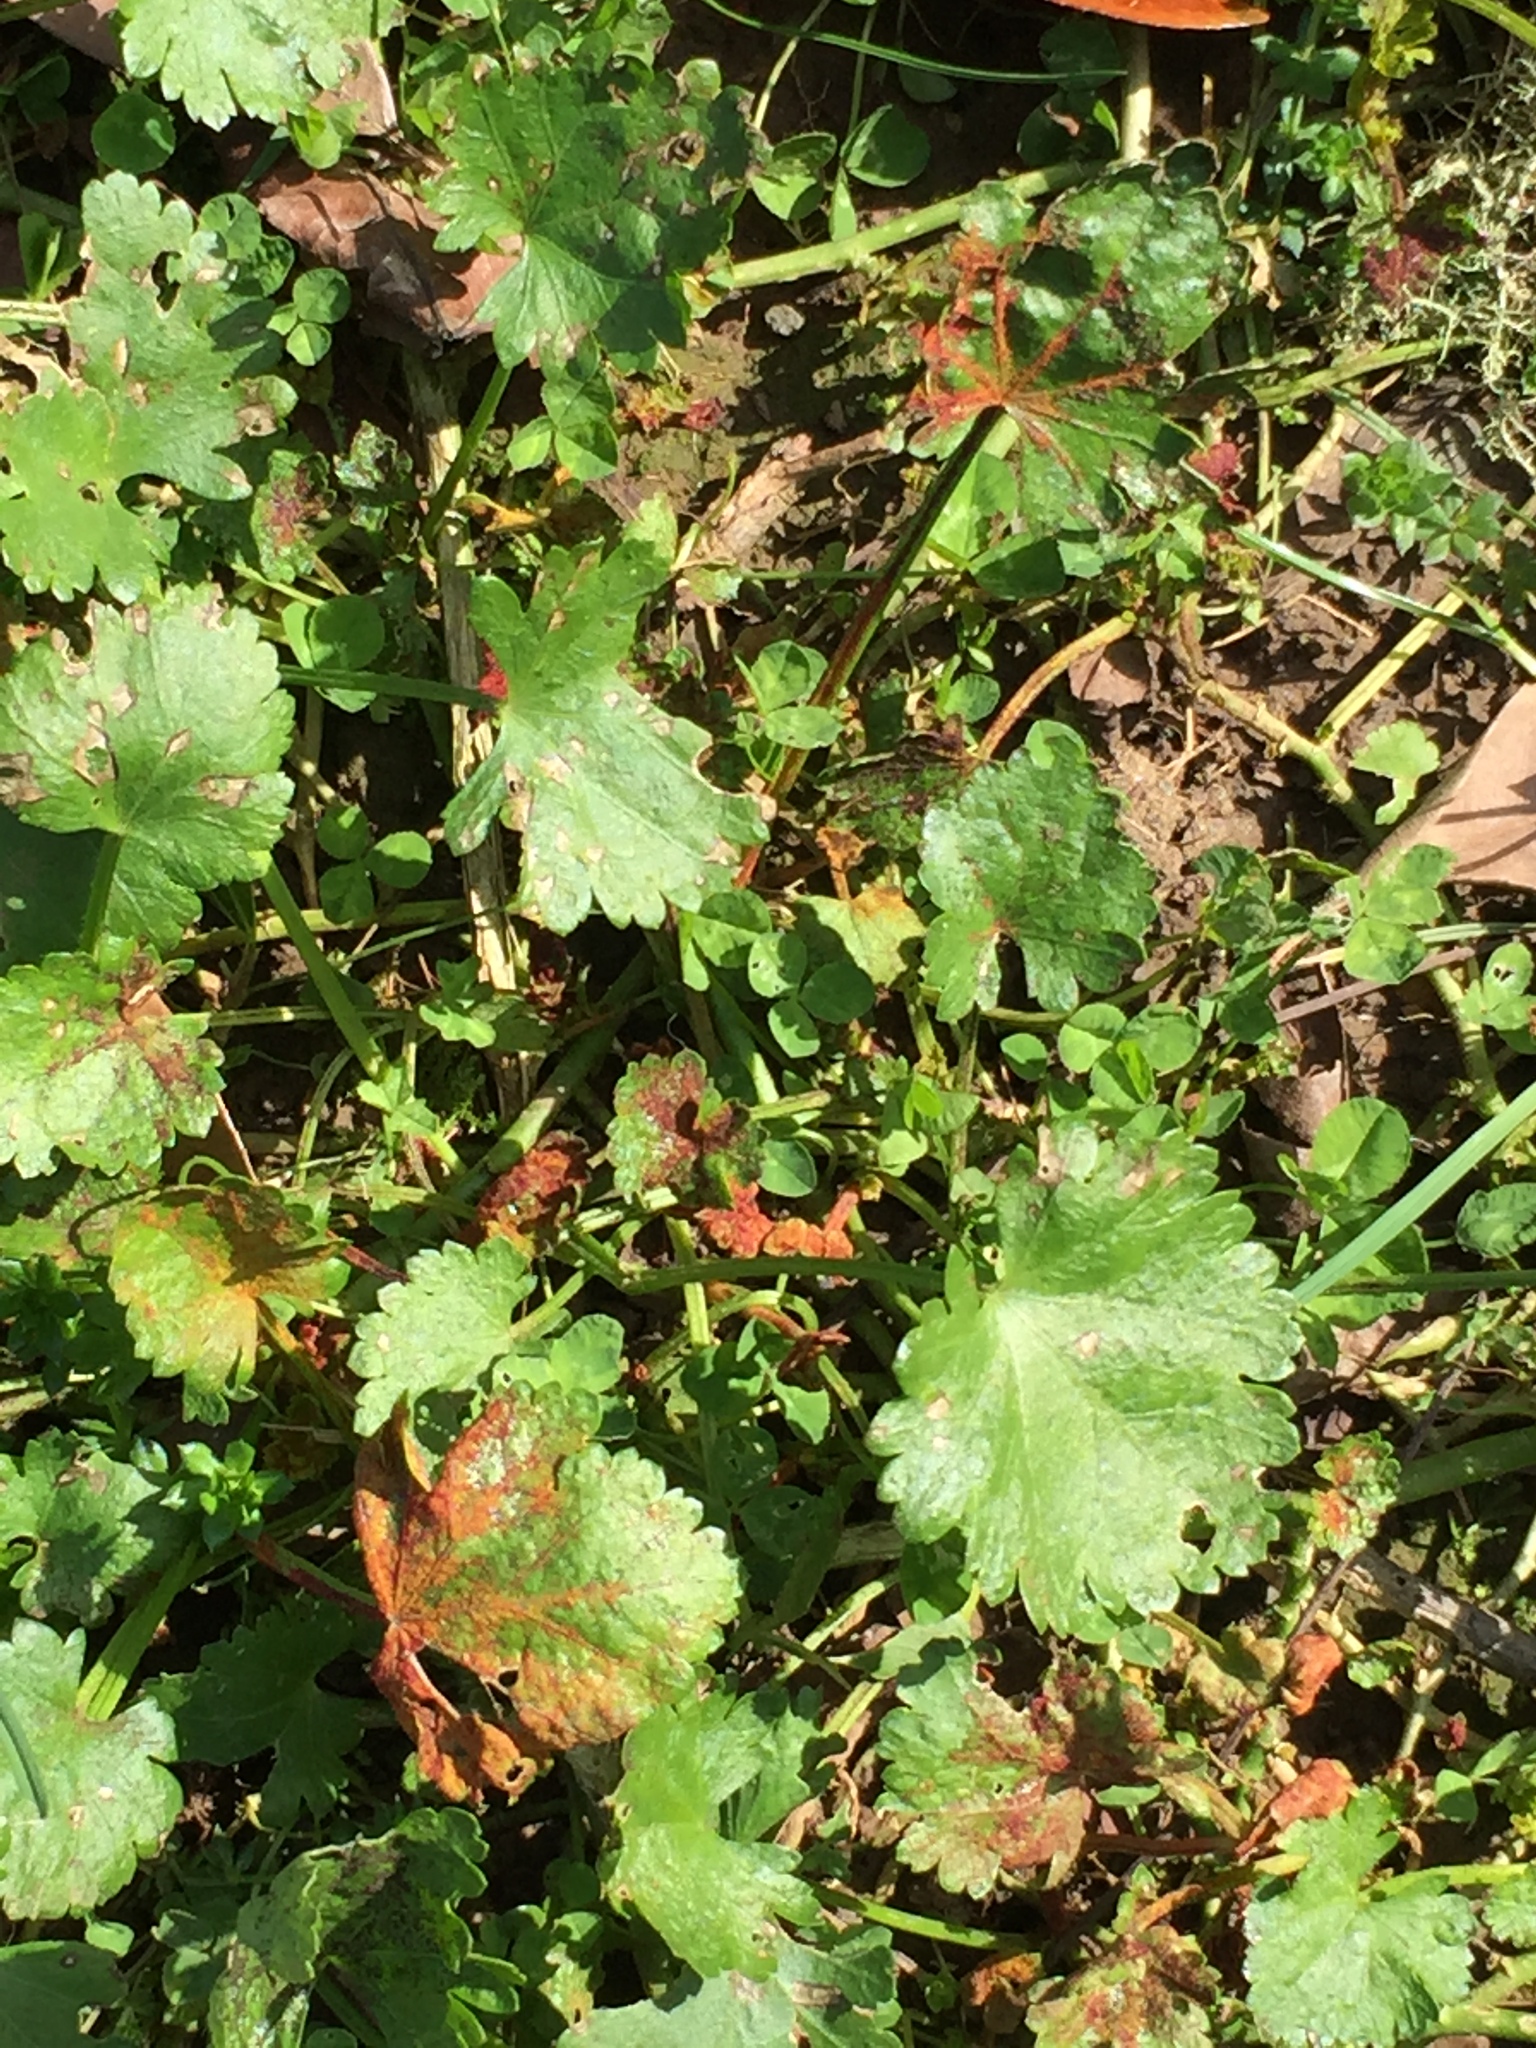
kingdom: Fungi
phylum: Chytridiomycota
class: Chytridiomycetes
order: Chytridiales
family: Synchytriaceae
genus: Synchytrium
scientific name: Synchytrium australe
